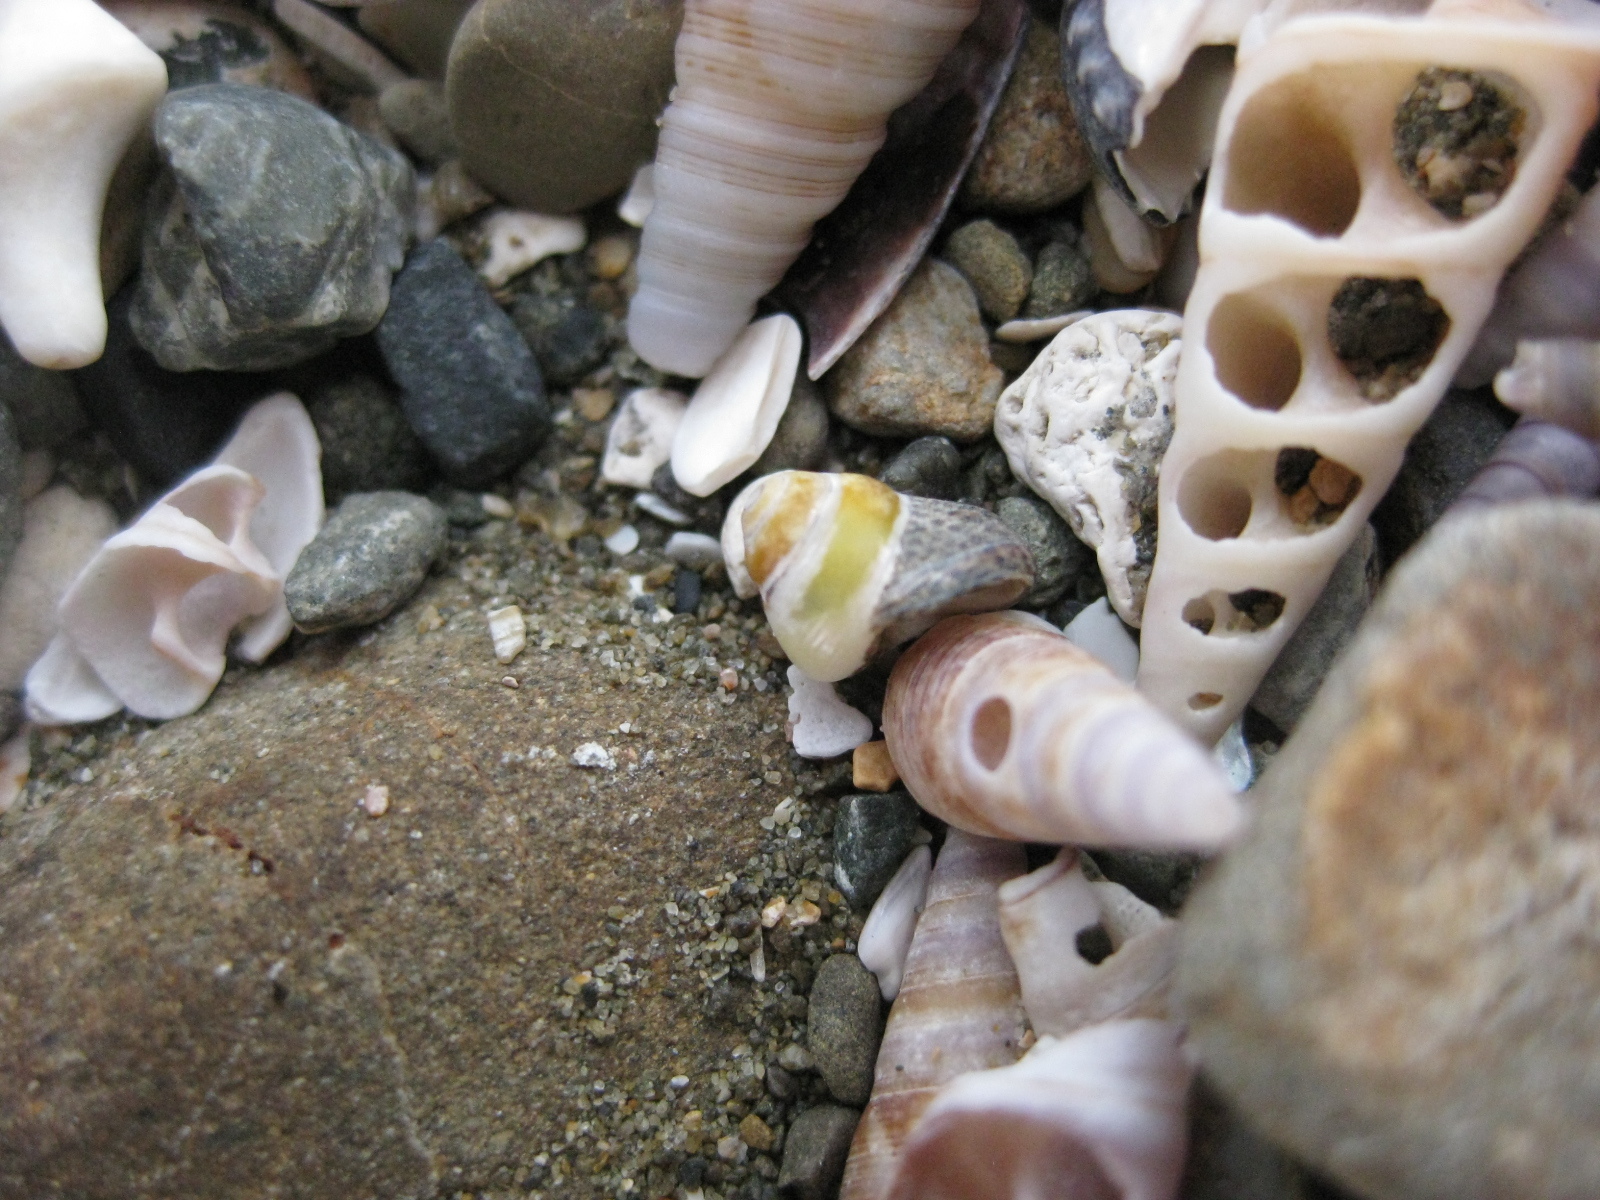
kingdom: Animalia
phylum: Mollusca
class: Gastropoda
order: Trochida
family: Trochidae
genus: Micrelenchus
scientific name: Micrelenchus tessellatus
